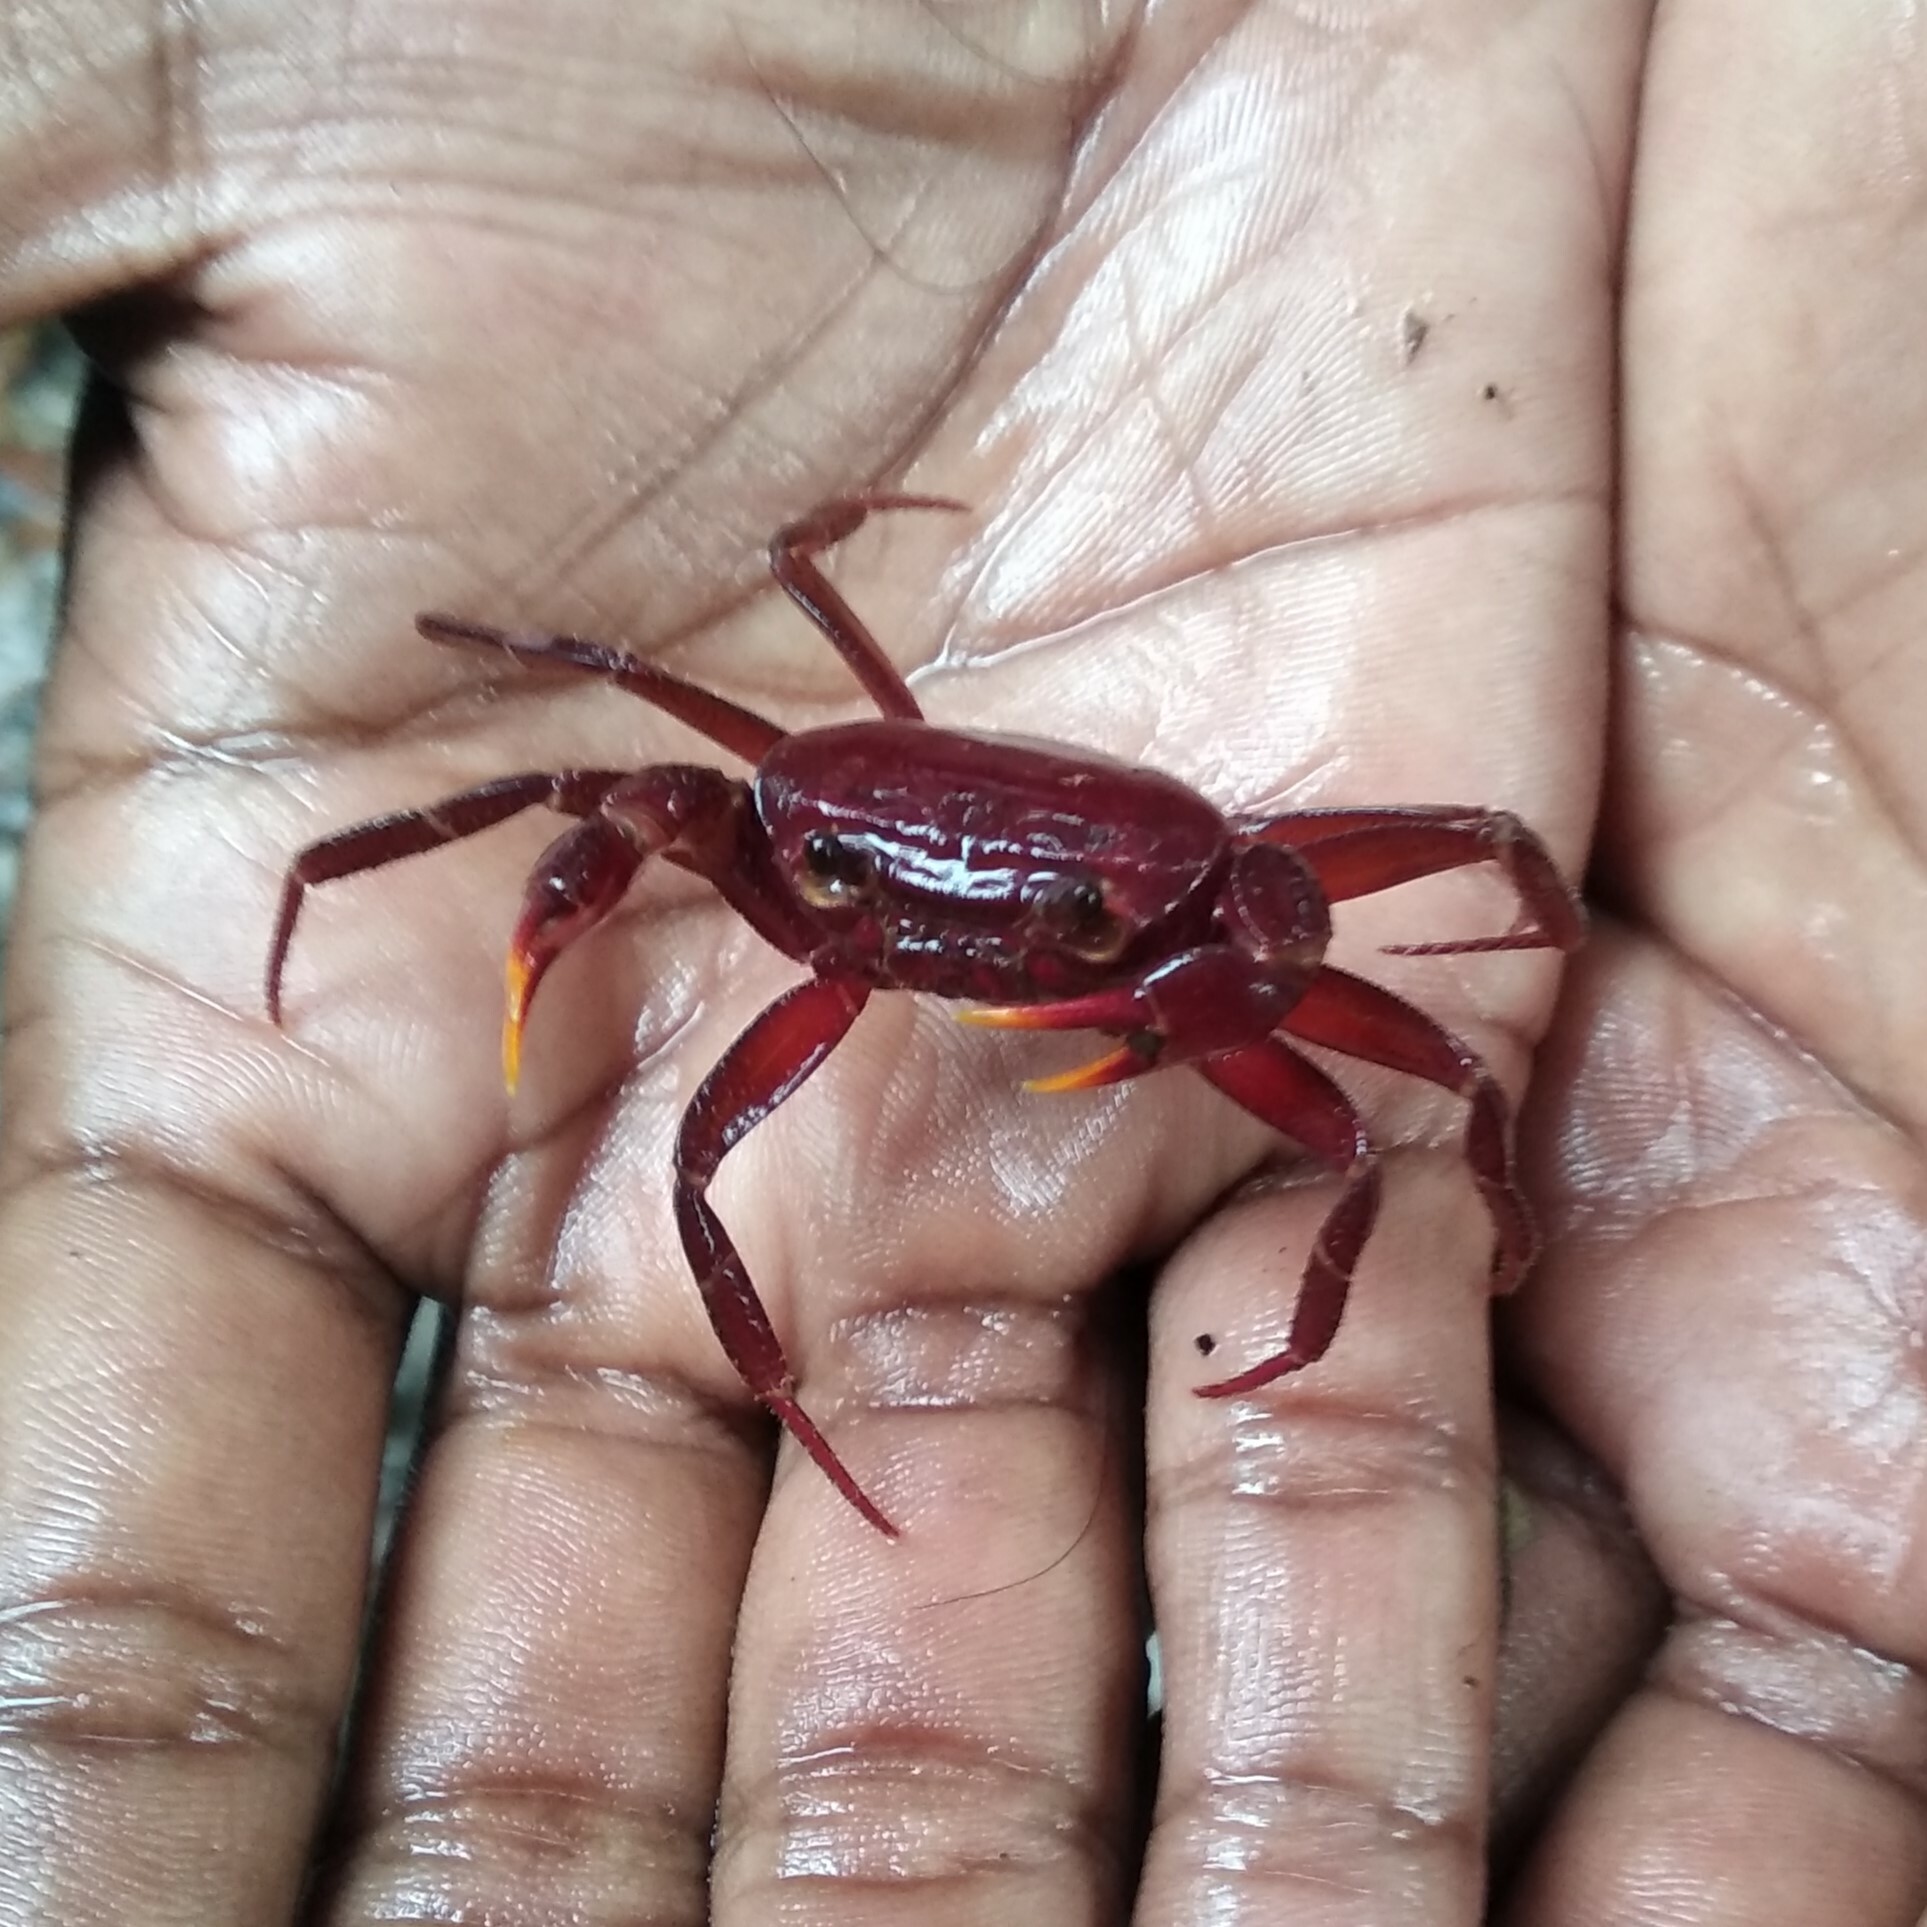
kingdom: Animalia
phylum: Arthropoda
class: Malacostraca
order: Decapoda
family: Gecarcinucidae
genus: Liotelphusa
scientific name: Liotelphusa quadrata
